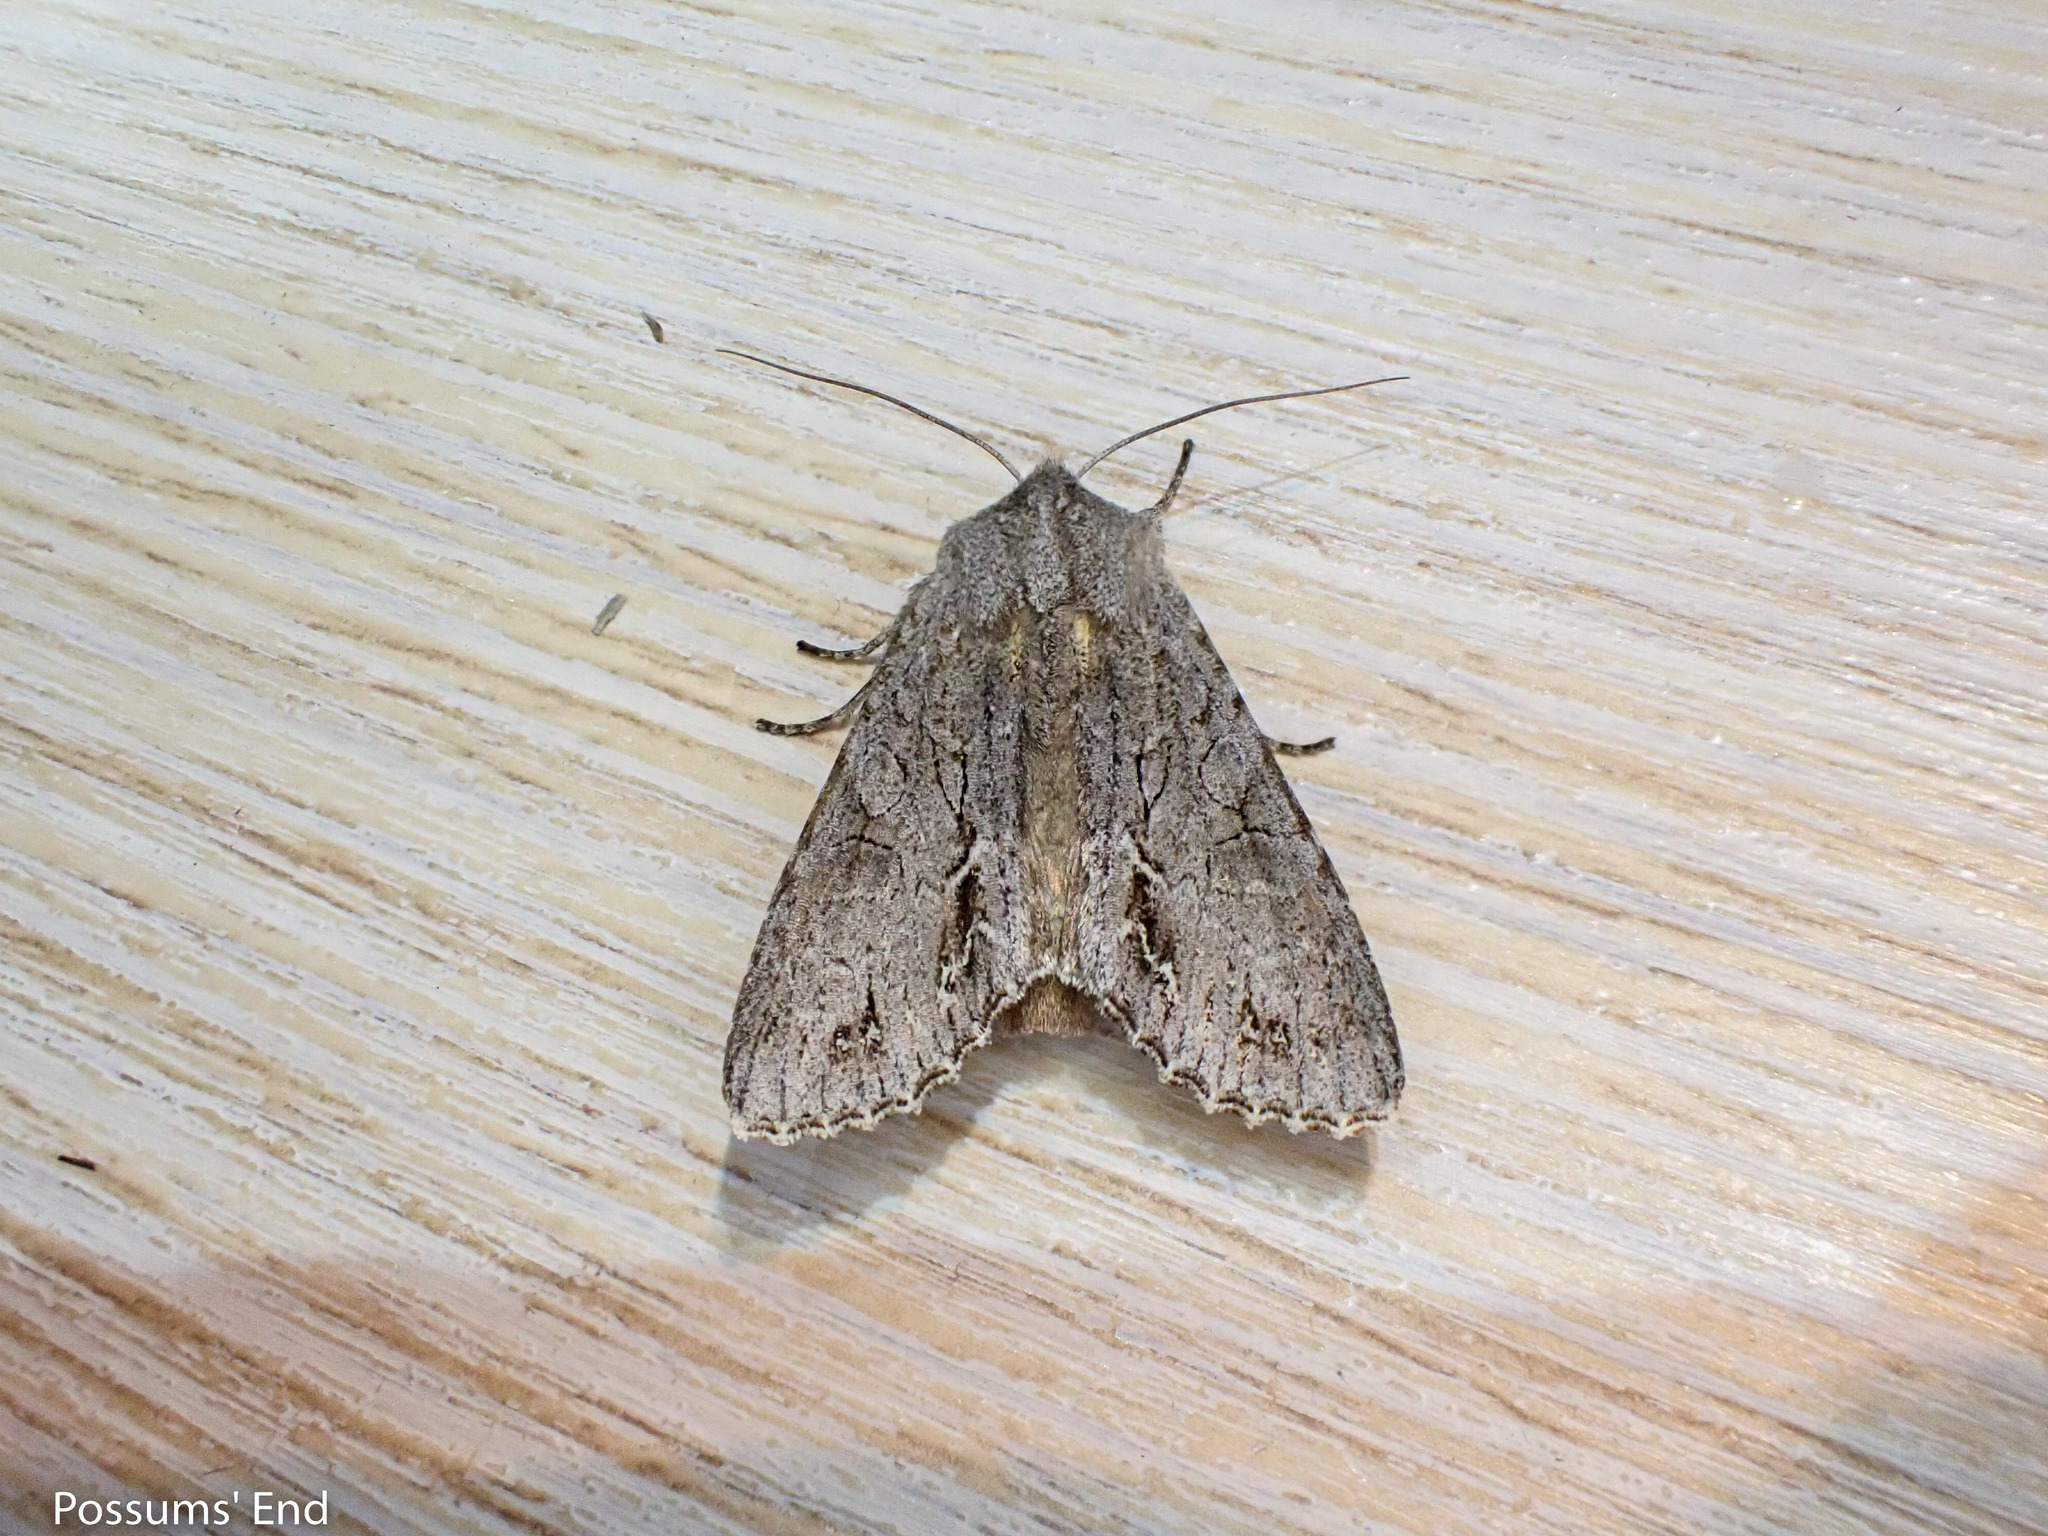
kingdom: Animalia
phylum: Arthropoda
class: Insecta
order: Lepidoptera
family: Noctuidae
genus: Ichneutica
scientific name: Ichneutica
